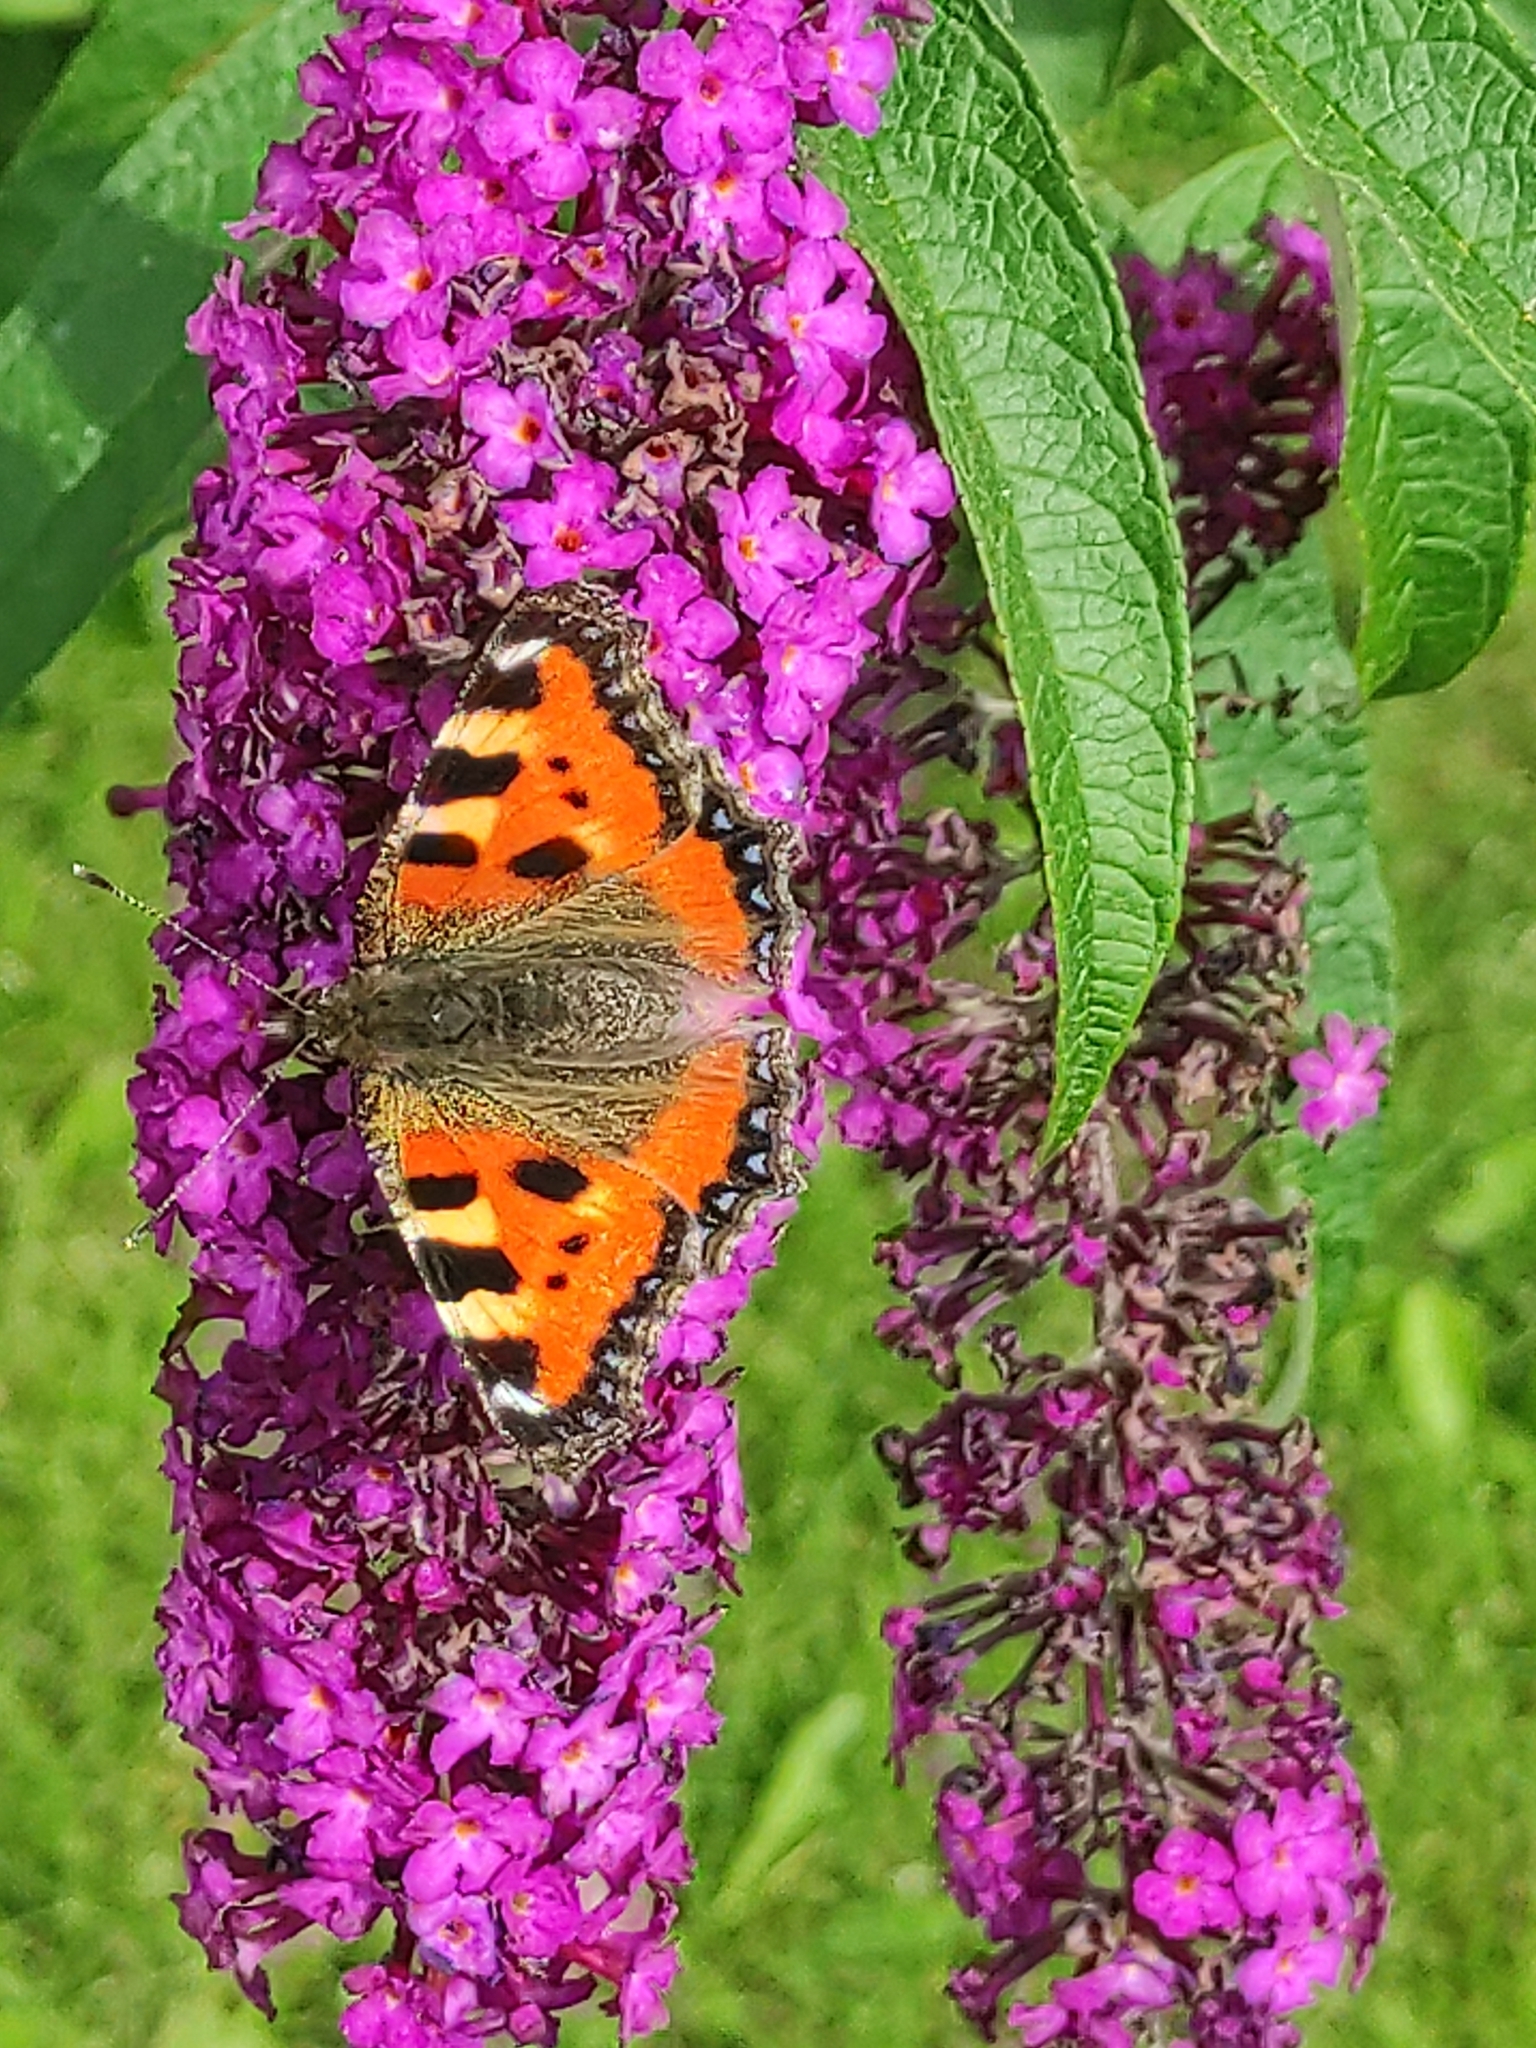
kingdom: Animalia
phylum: Arthropoda
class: Insecta
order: Lepidoptera
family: Nymphalidae
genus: Aglais
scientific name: Aglais urticae
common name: Small tortoiseshell
